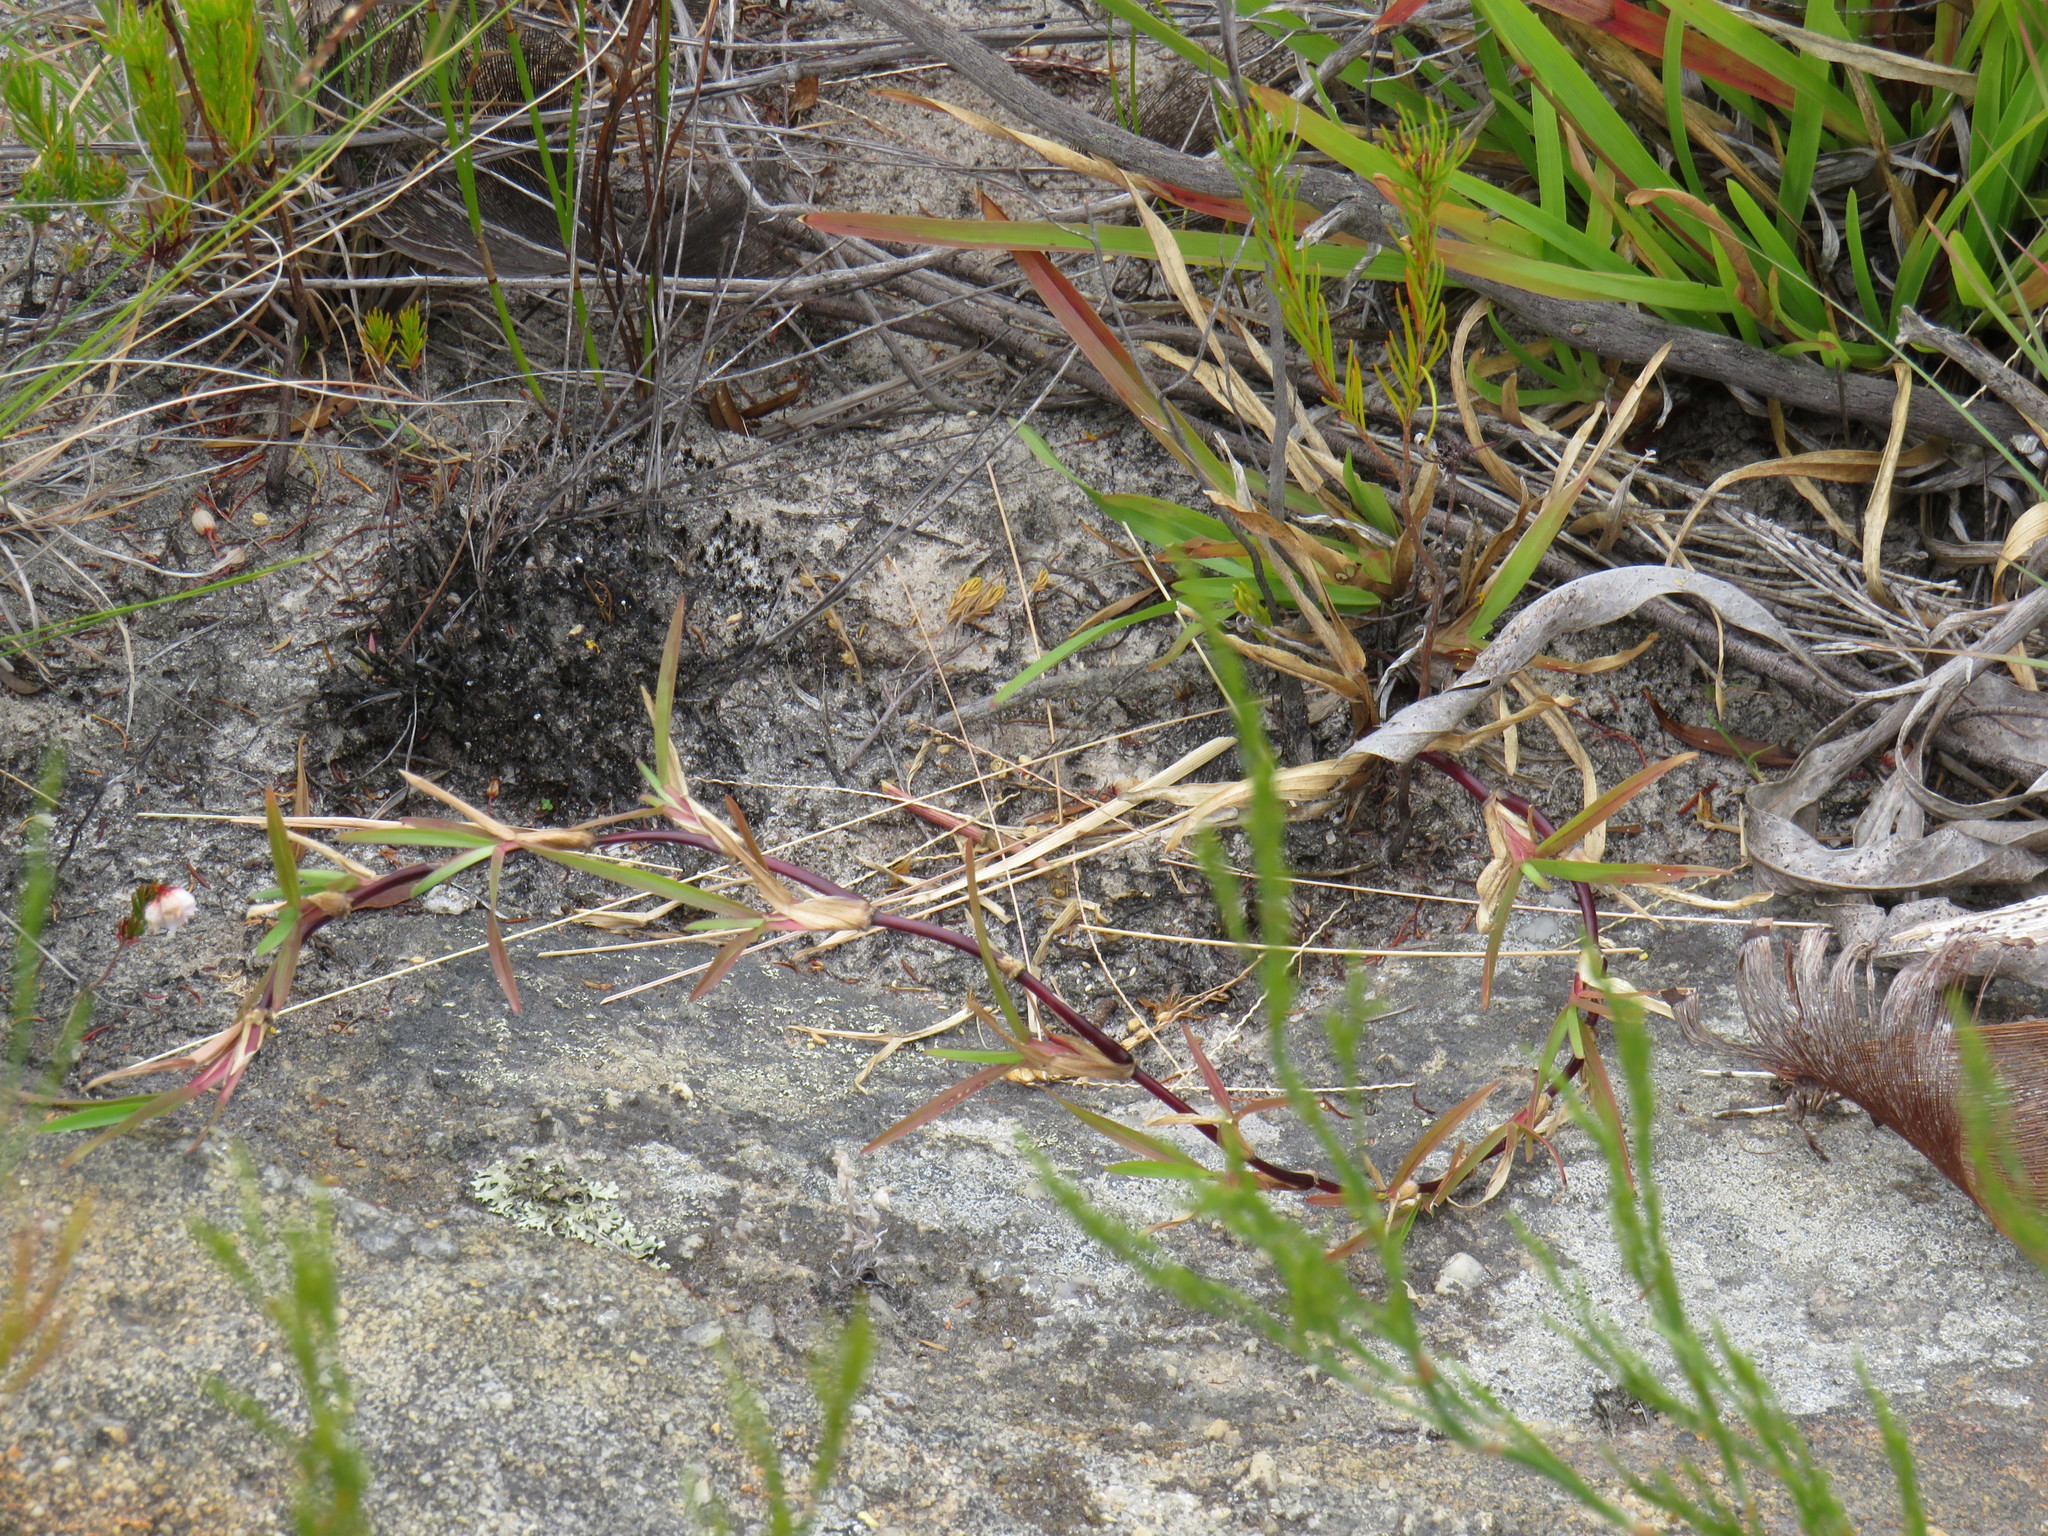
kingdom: Plantae
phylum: Tracheophyta
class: Liliopsida
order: Poales
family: Poaceae
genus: Stenotaphrum
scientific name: Stenotaphrum secundatum
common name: St. augustine grass
